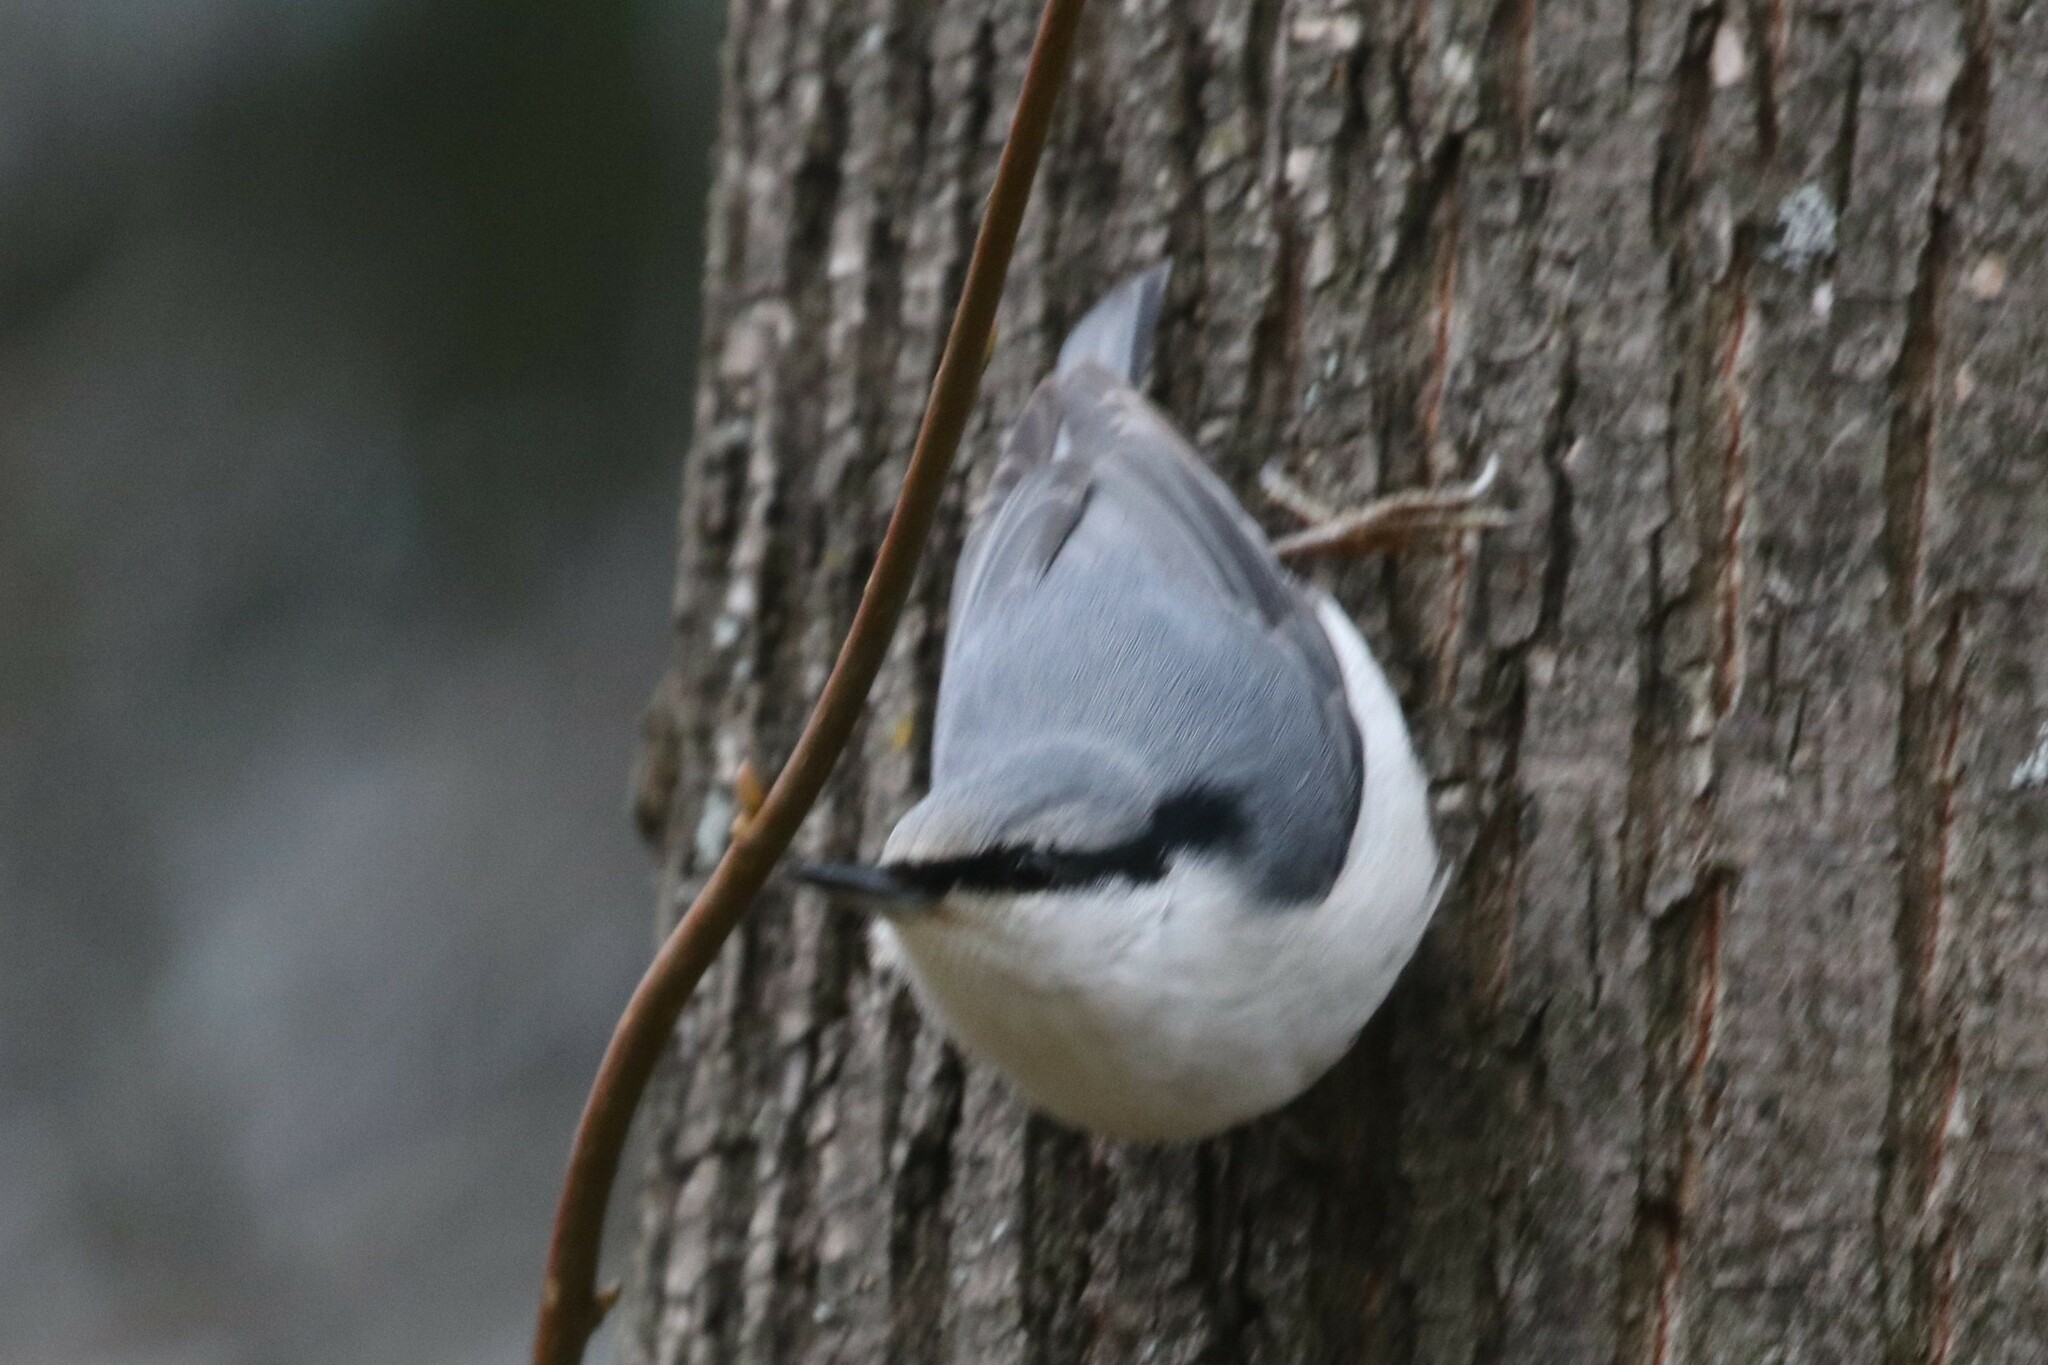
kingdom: Animalia
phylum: Chordata
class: Aves
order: Passeriformes
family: Sittidae
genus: Sitta
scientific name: Sitta europaea
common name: Eurasian nuthatch
